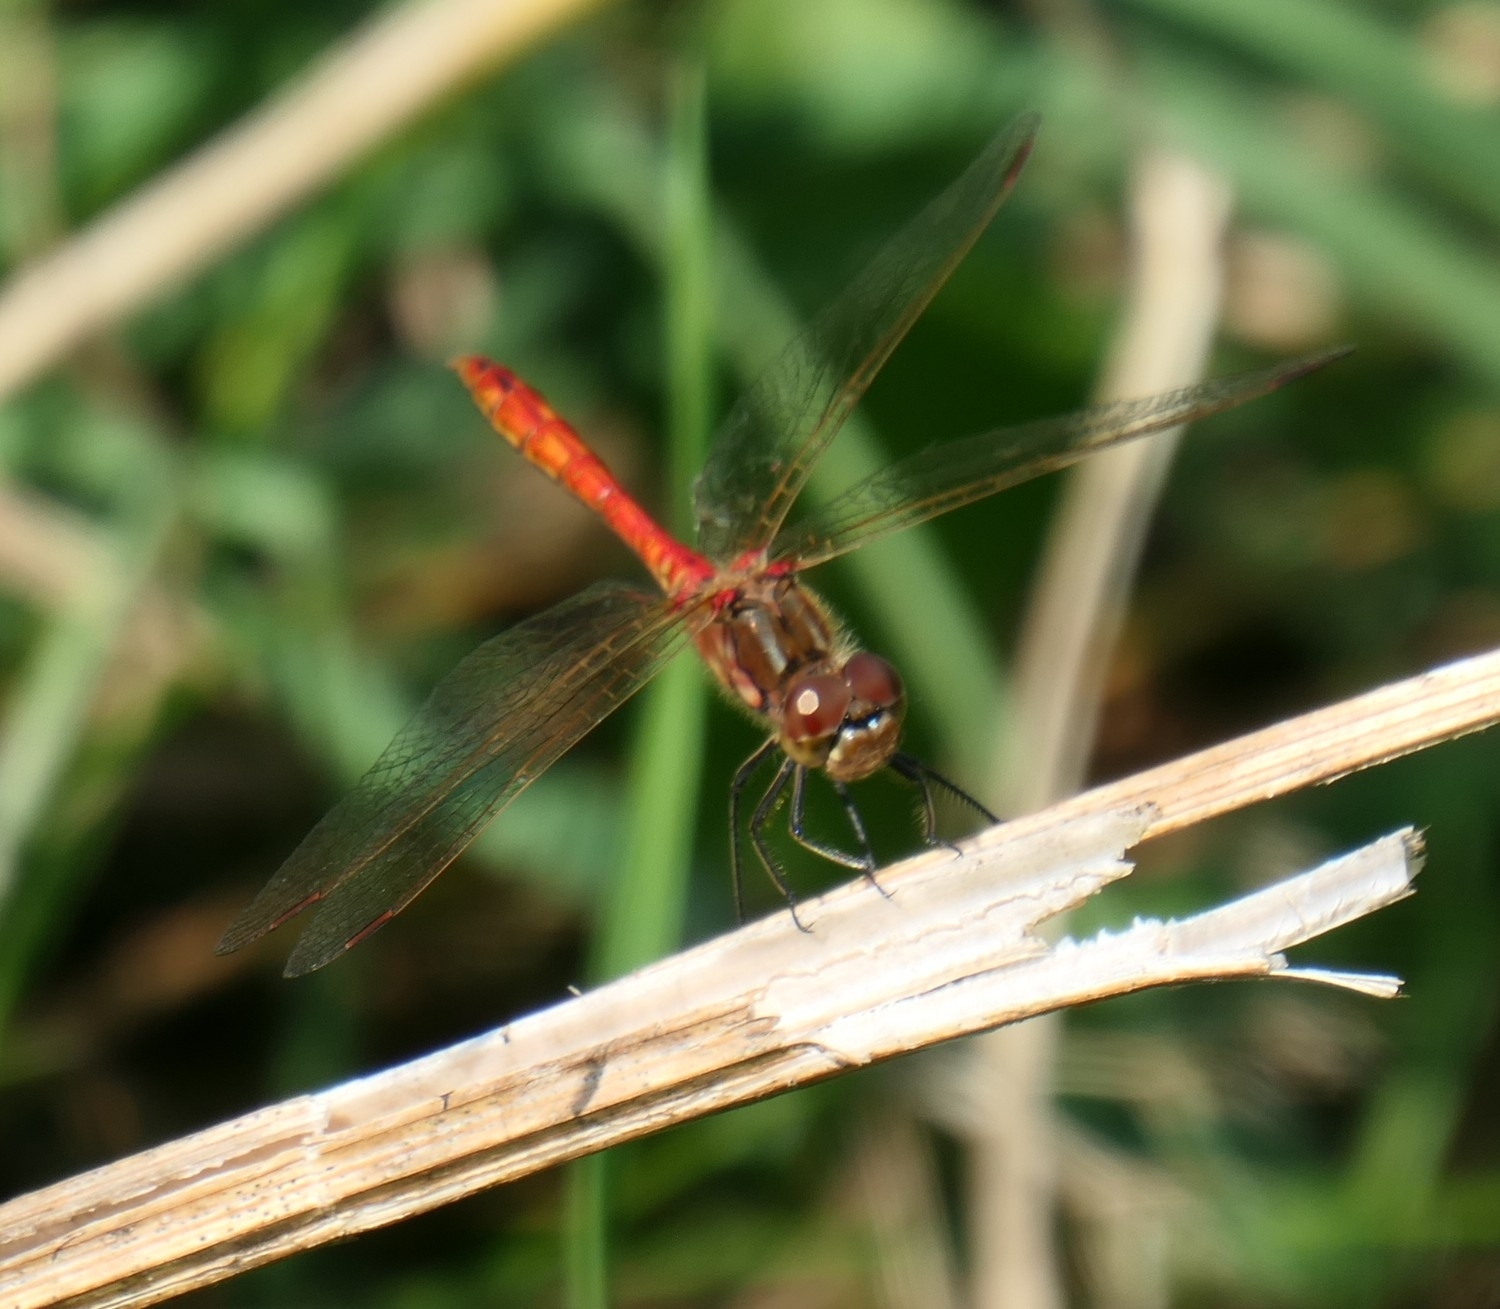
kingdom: Animalia
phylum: Arthropoda
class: Insecta
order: Odonata
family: Libellulidae
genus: Sympetrum
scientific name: Sympetrum vulgatum
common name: Vagrant darter
